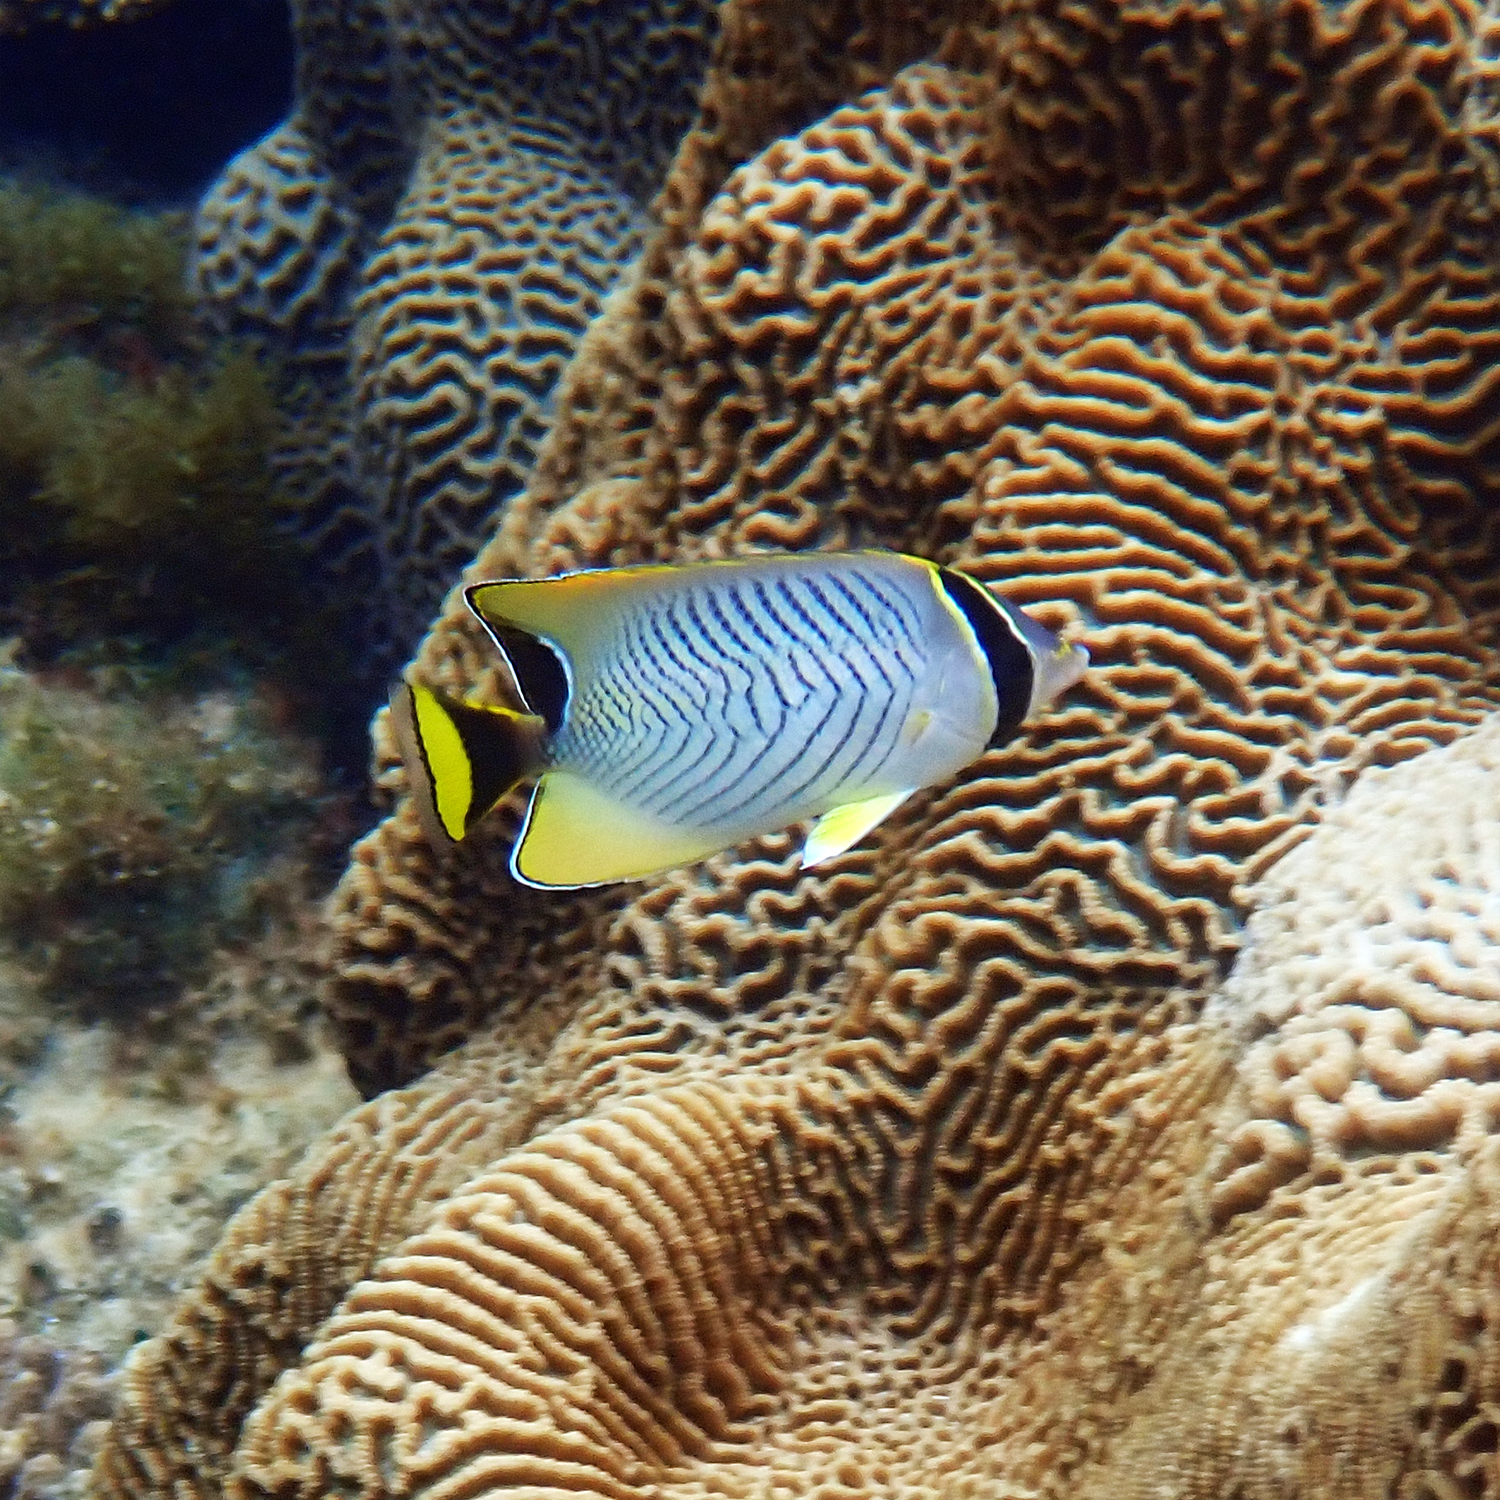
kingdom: Animalia
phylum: Chordata
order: Perciformes
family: Chaetodontidae
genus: Chaetodon
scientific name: Chaetodon trifascialis
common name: Chevroned butterflyfish
